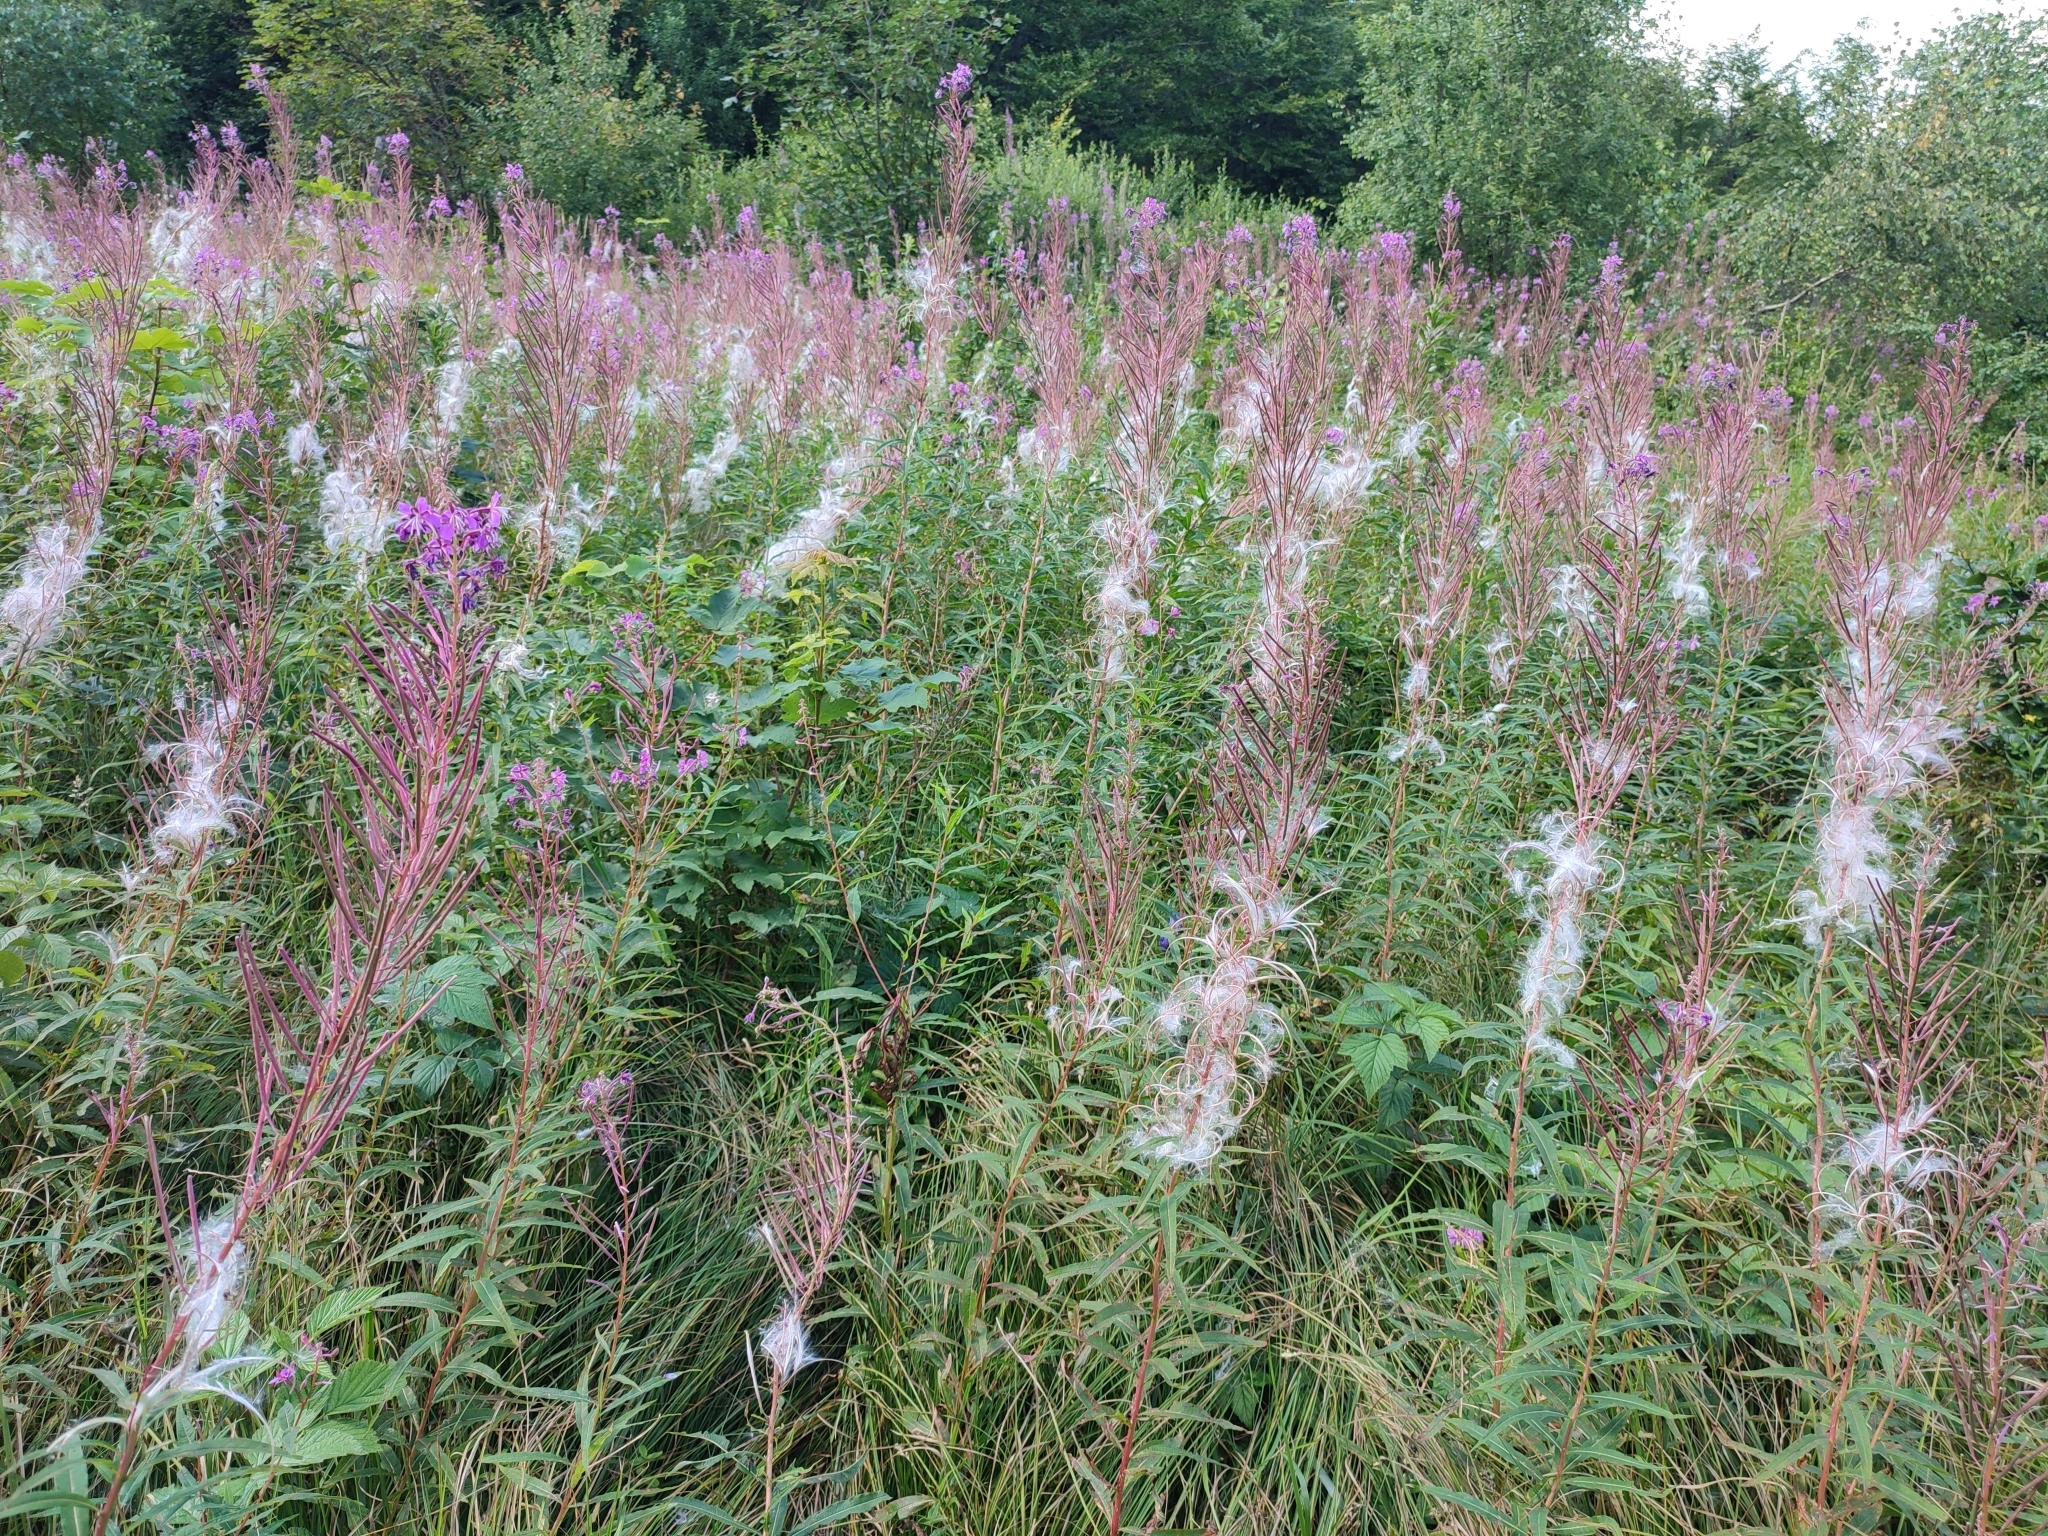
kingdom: Plantae
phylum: Tracheophyta
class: Magnoliopsida
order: Myrtales
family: Onagraceae
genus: Chamaenerion
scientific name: Chamaenerion angustifolium
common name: Fireweed
